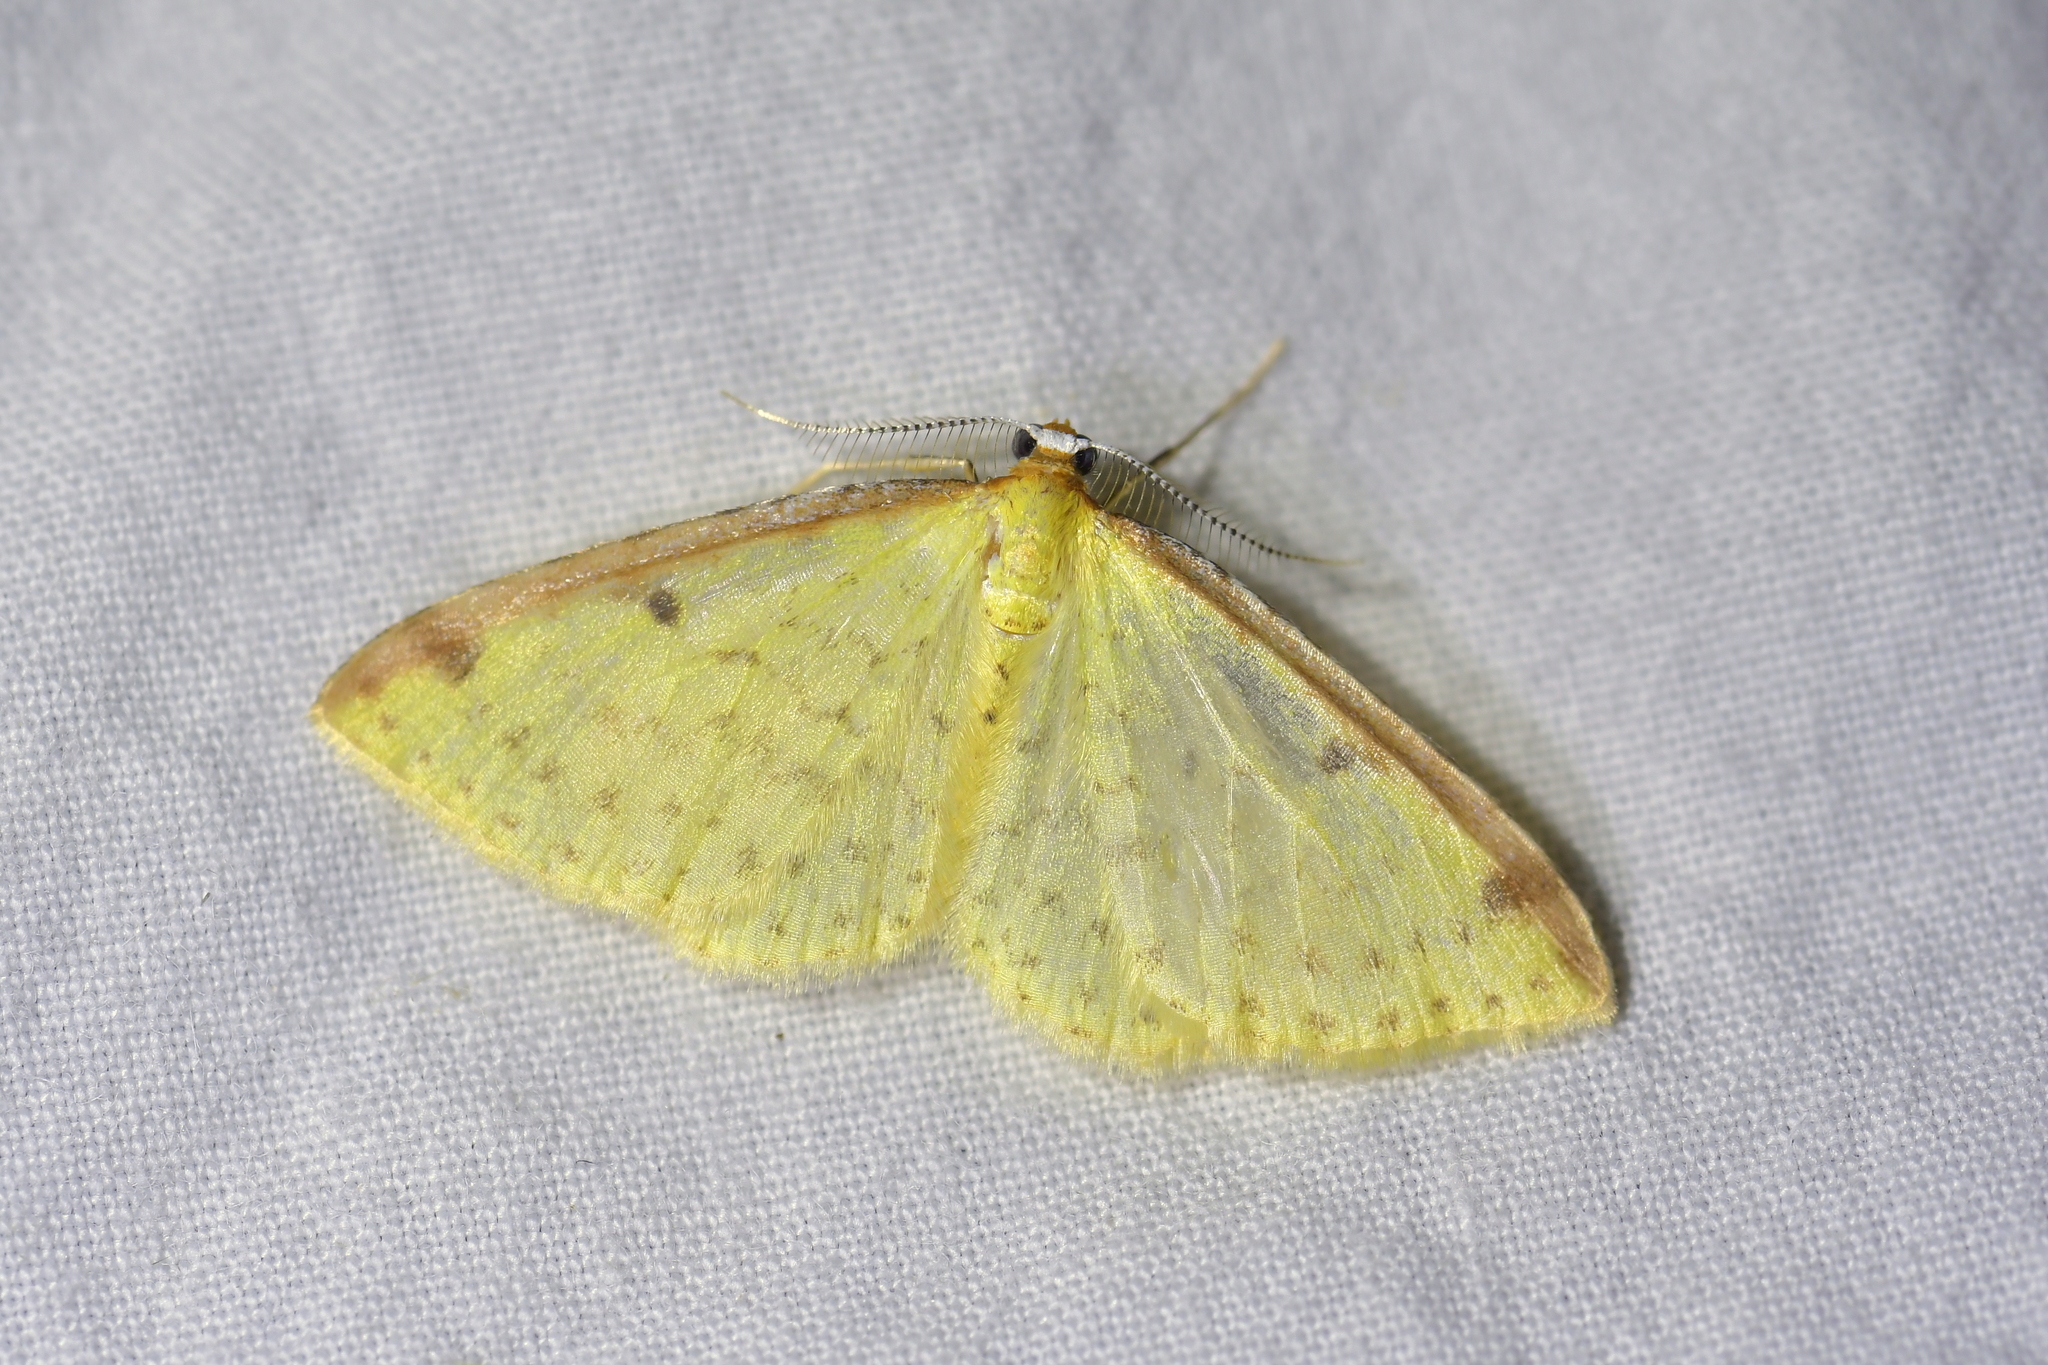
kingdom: Animalia
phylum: Arthropoda
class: Insecta
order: Lepidoptera
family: Geometridae
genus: Epiphryne
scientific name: Epiphryne undosata
